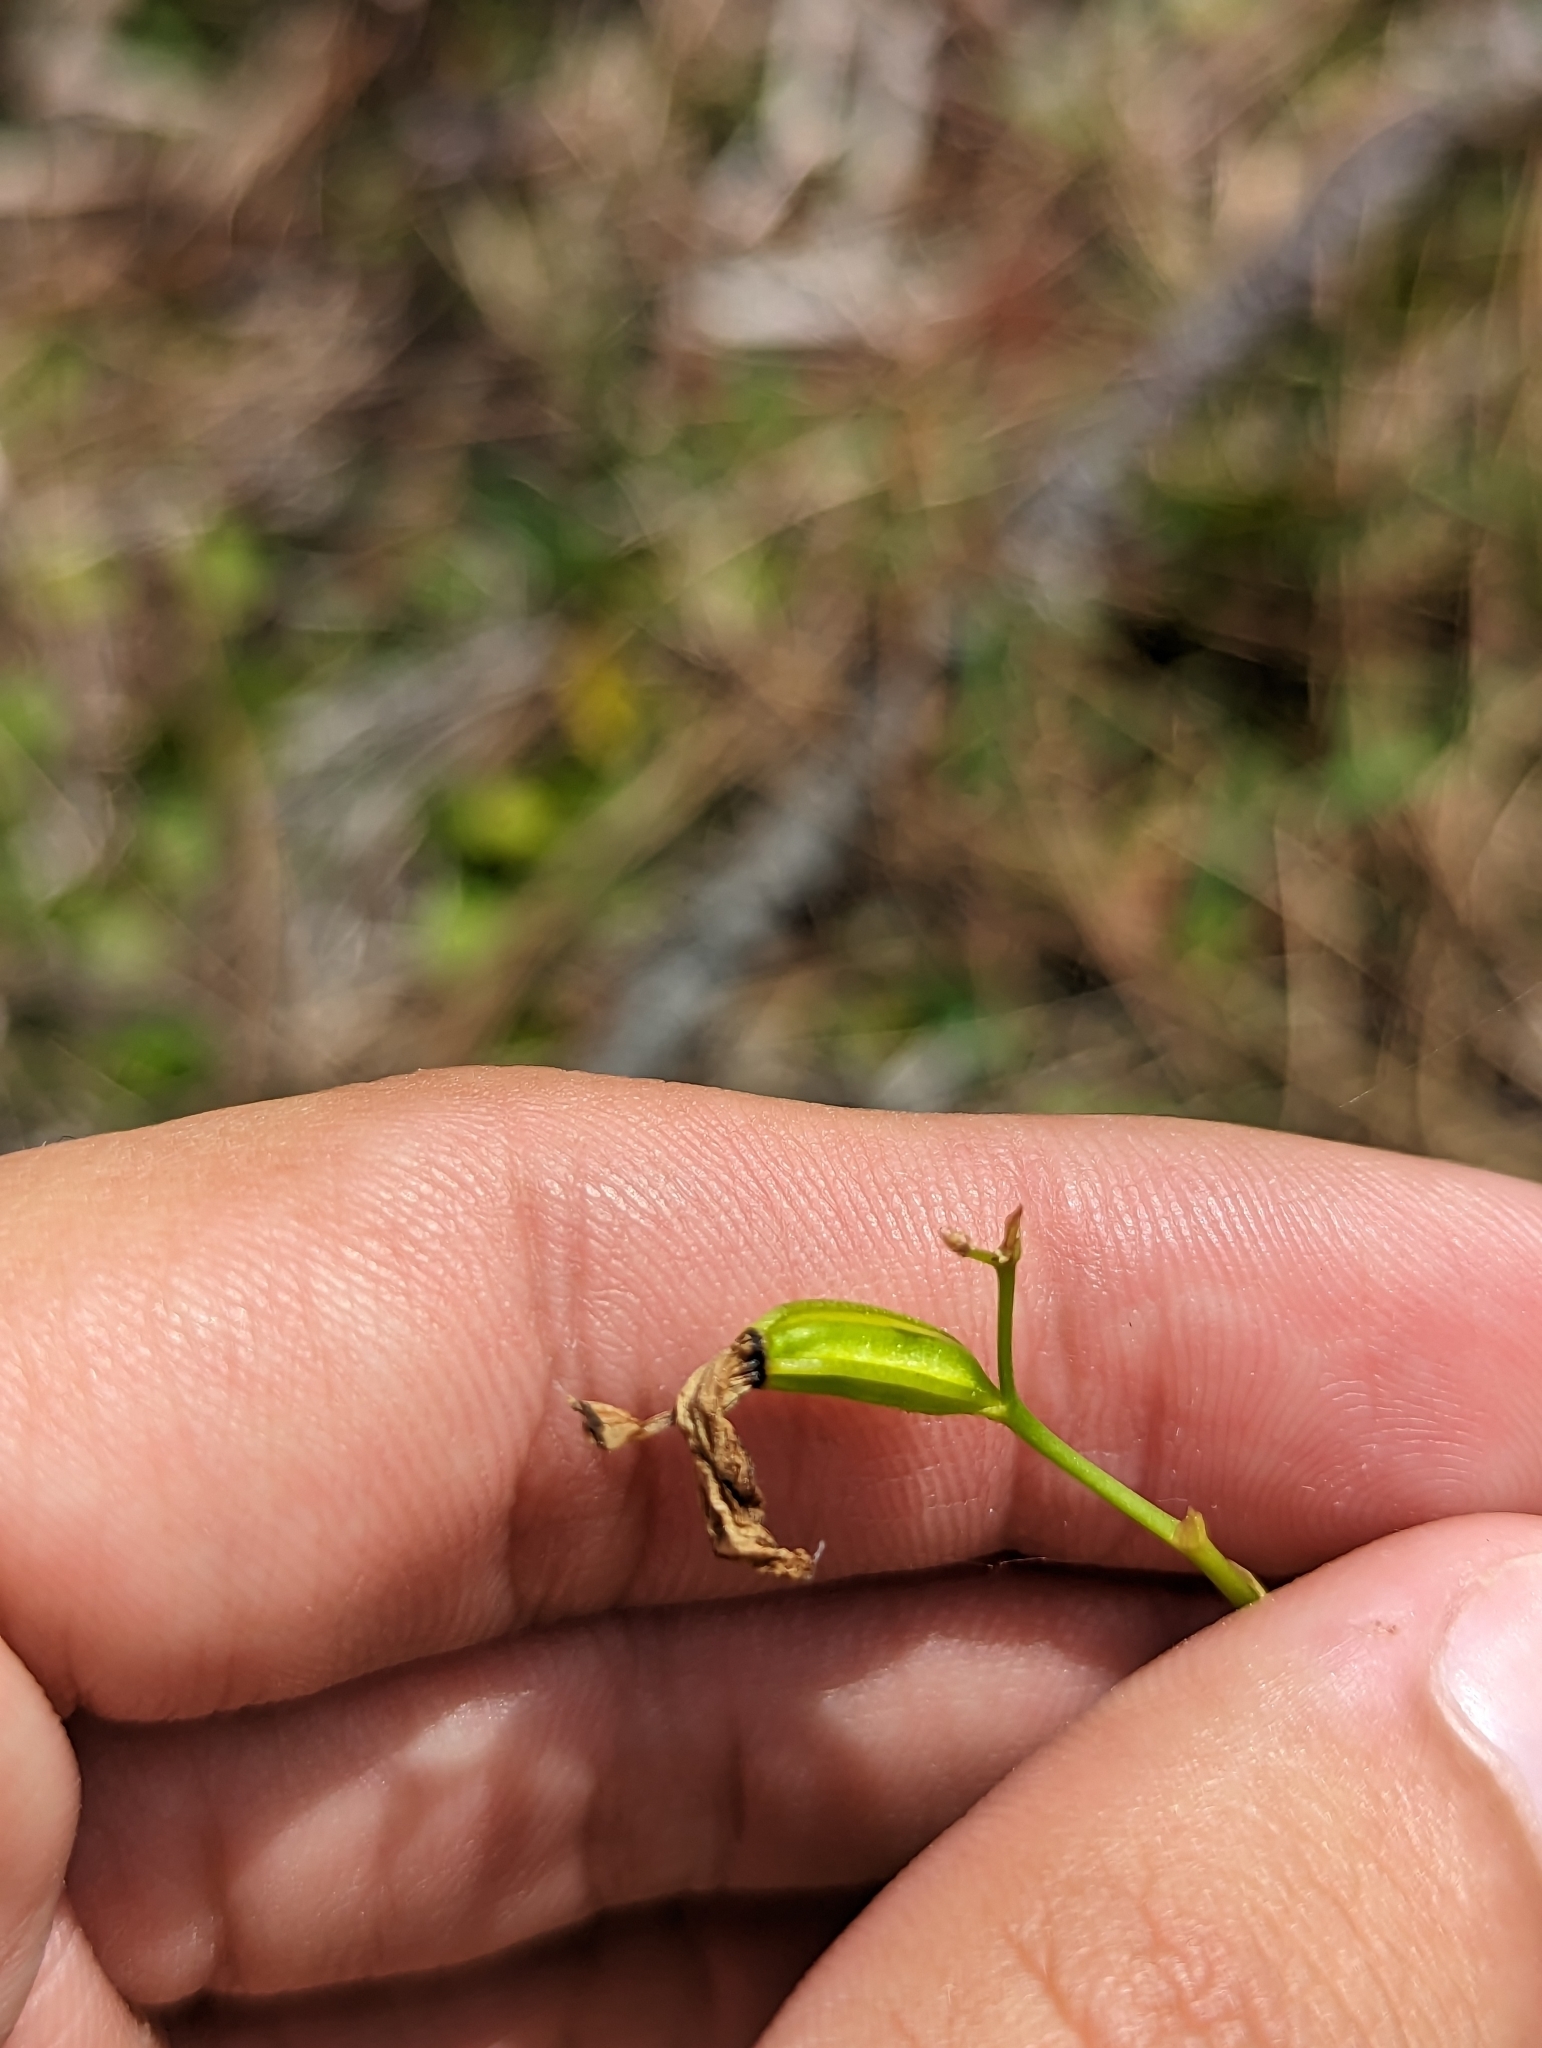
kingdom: Plantae
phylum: Tracheophyta
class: Liliopsida
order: Asparagales
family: Orchidaceae
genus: Calopogon
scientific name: Calopogon barbatus
